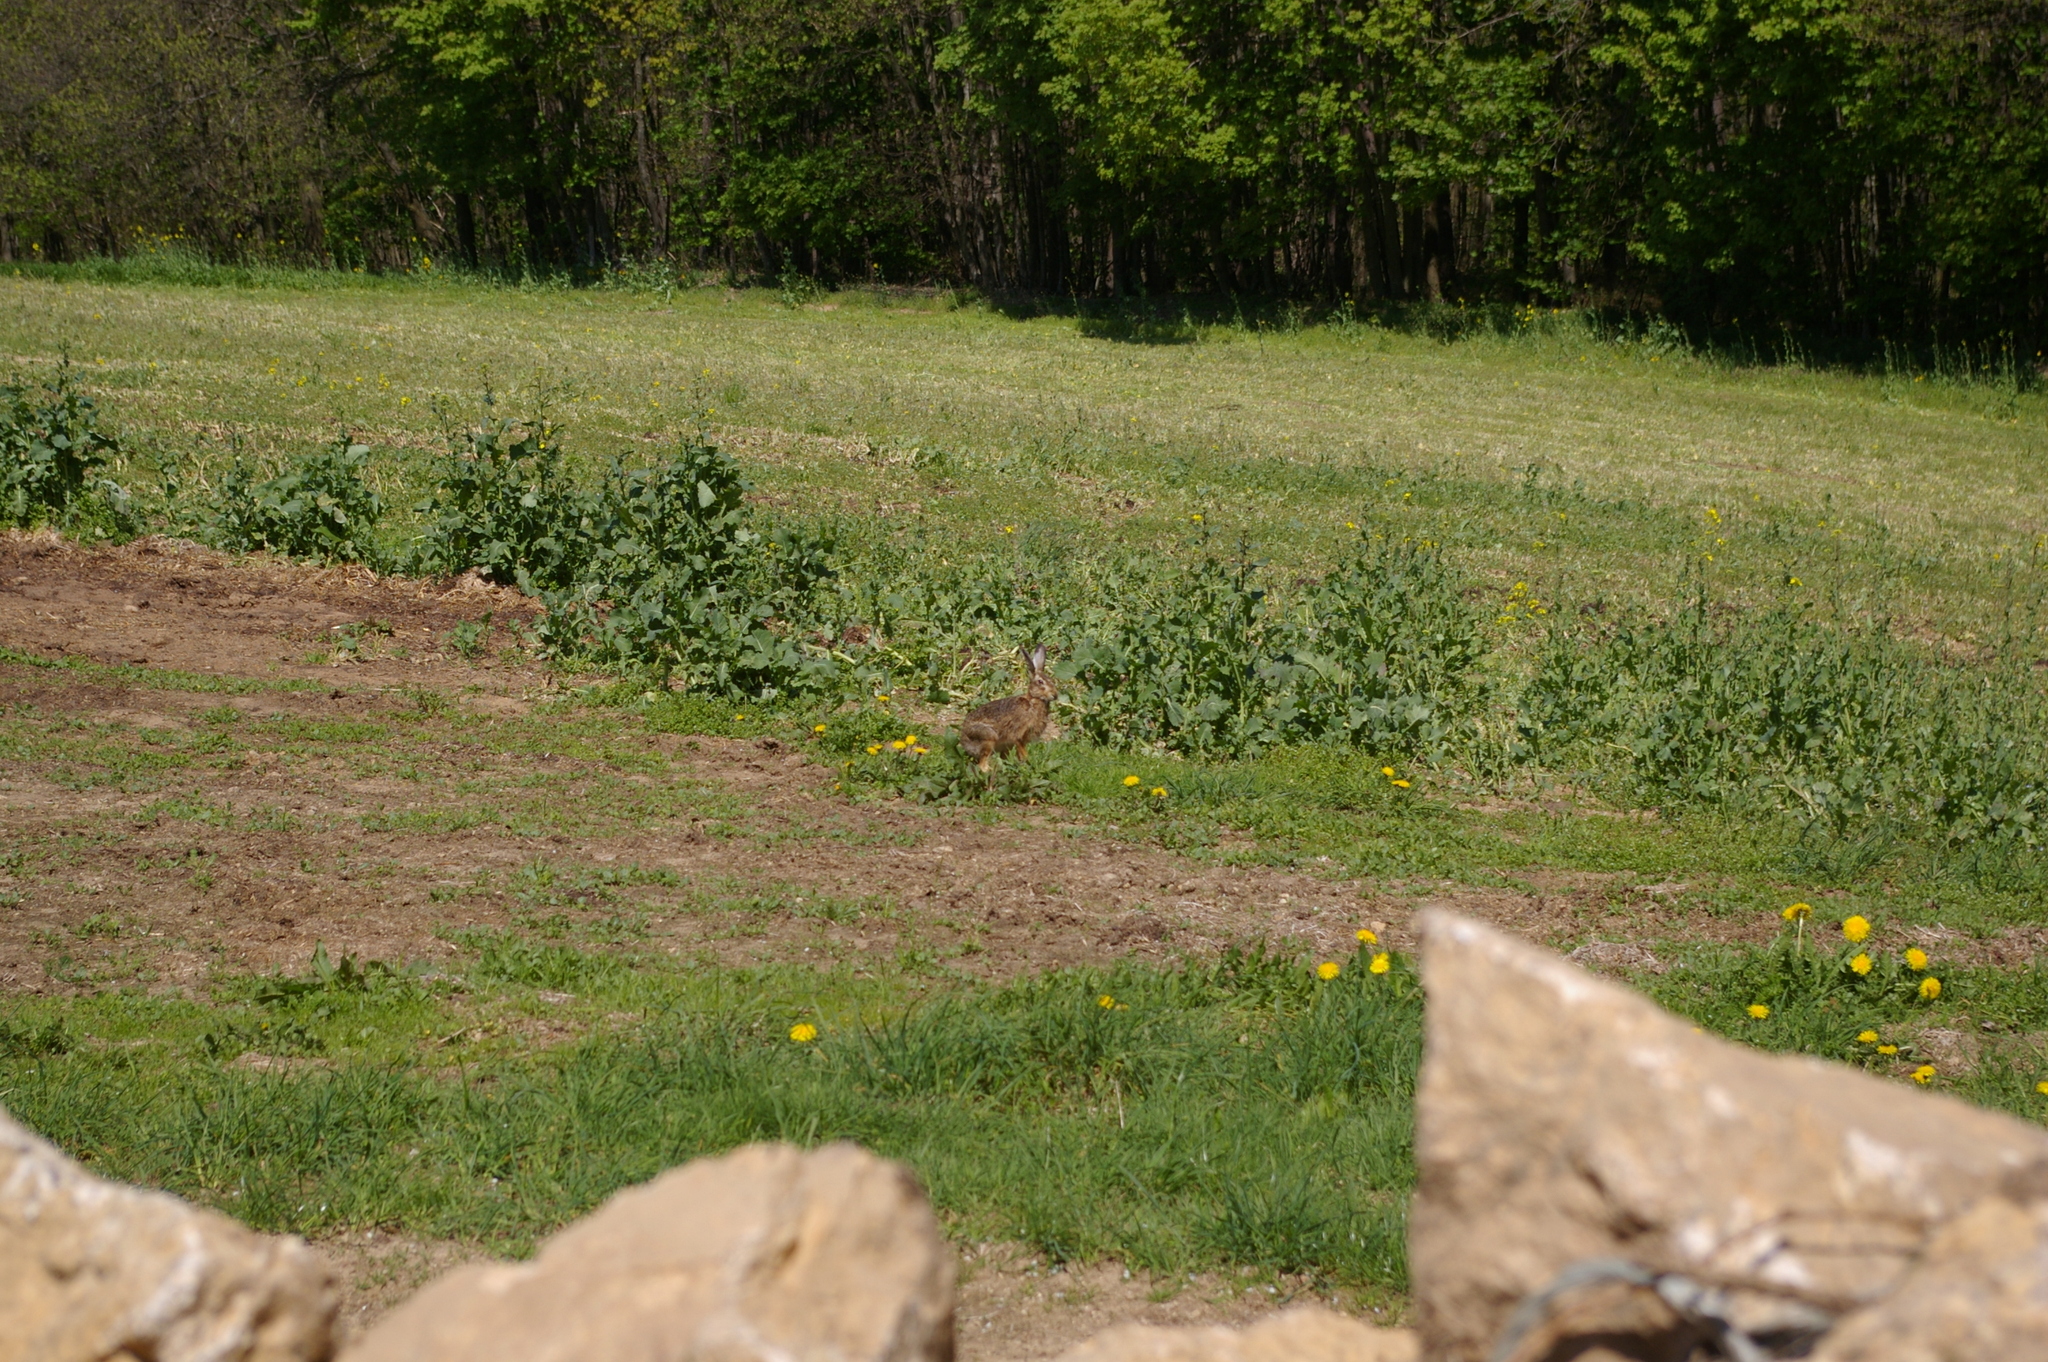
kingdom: Animalia
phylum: Chordata
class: Mammalia
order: Lagomorpha
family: Leporidae
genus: Lepus
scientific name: Lepus europaeus
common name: European hare
